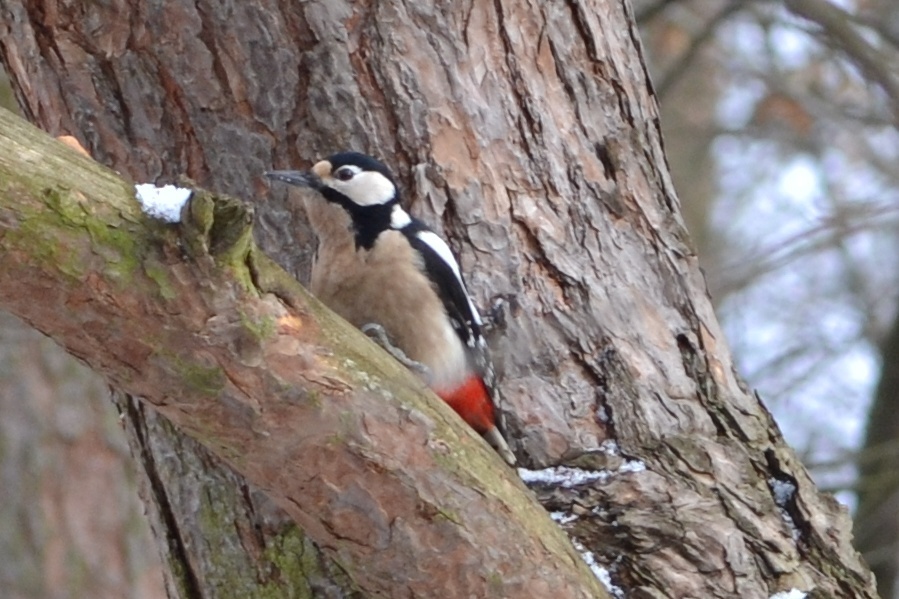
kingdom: Animalia
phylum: Chordata
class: Aves
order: Piciformes
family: Picidae
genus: Dendrocopos
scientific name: Dendrocopos major
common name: Great spotted woodpecker
